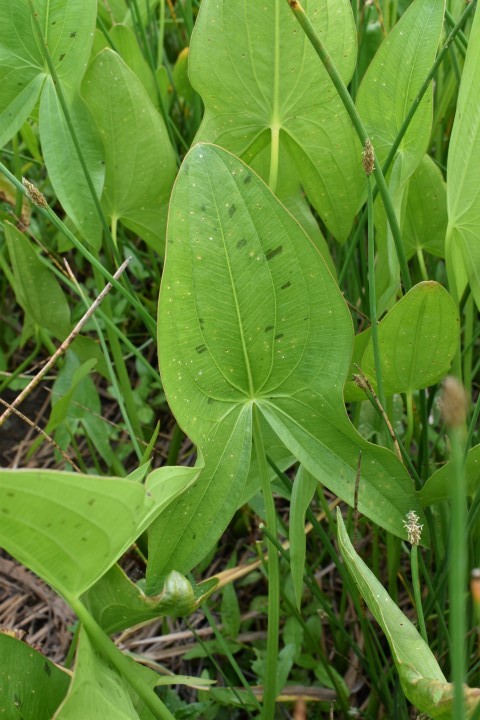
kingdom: Plantae
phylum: Tracheophyta
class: Liliopsida
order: Alismatales
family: Alismataceae
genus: Sagittaria
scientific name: Sagittaria latifolia
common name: Duck-potato
